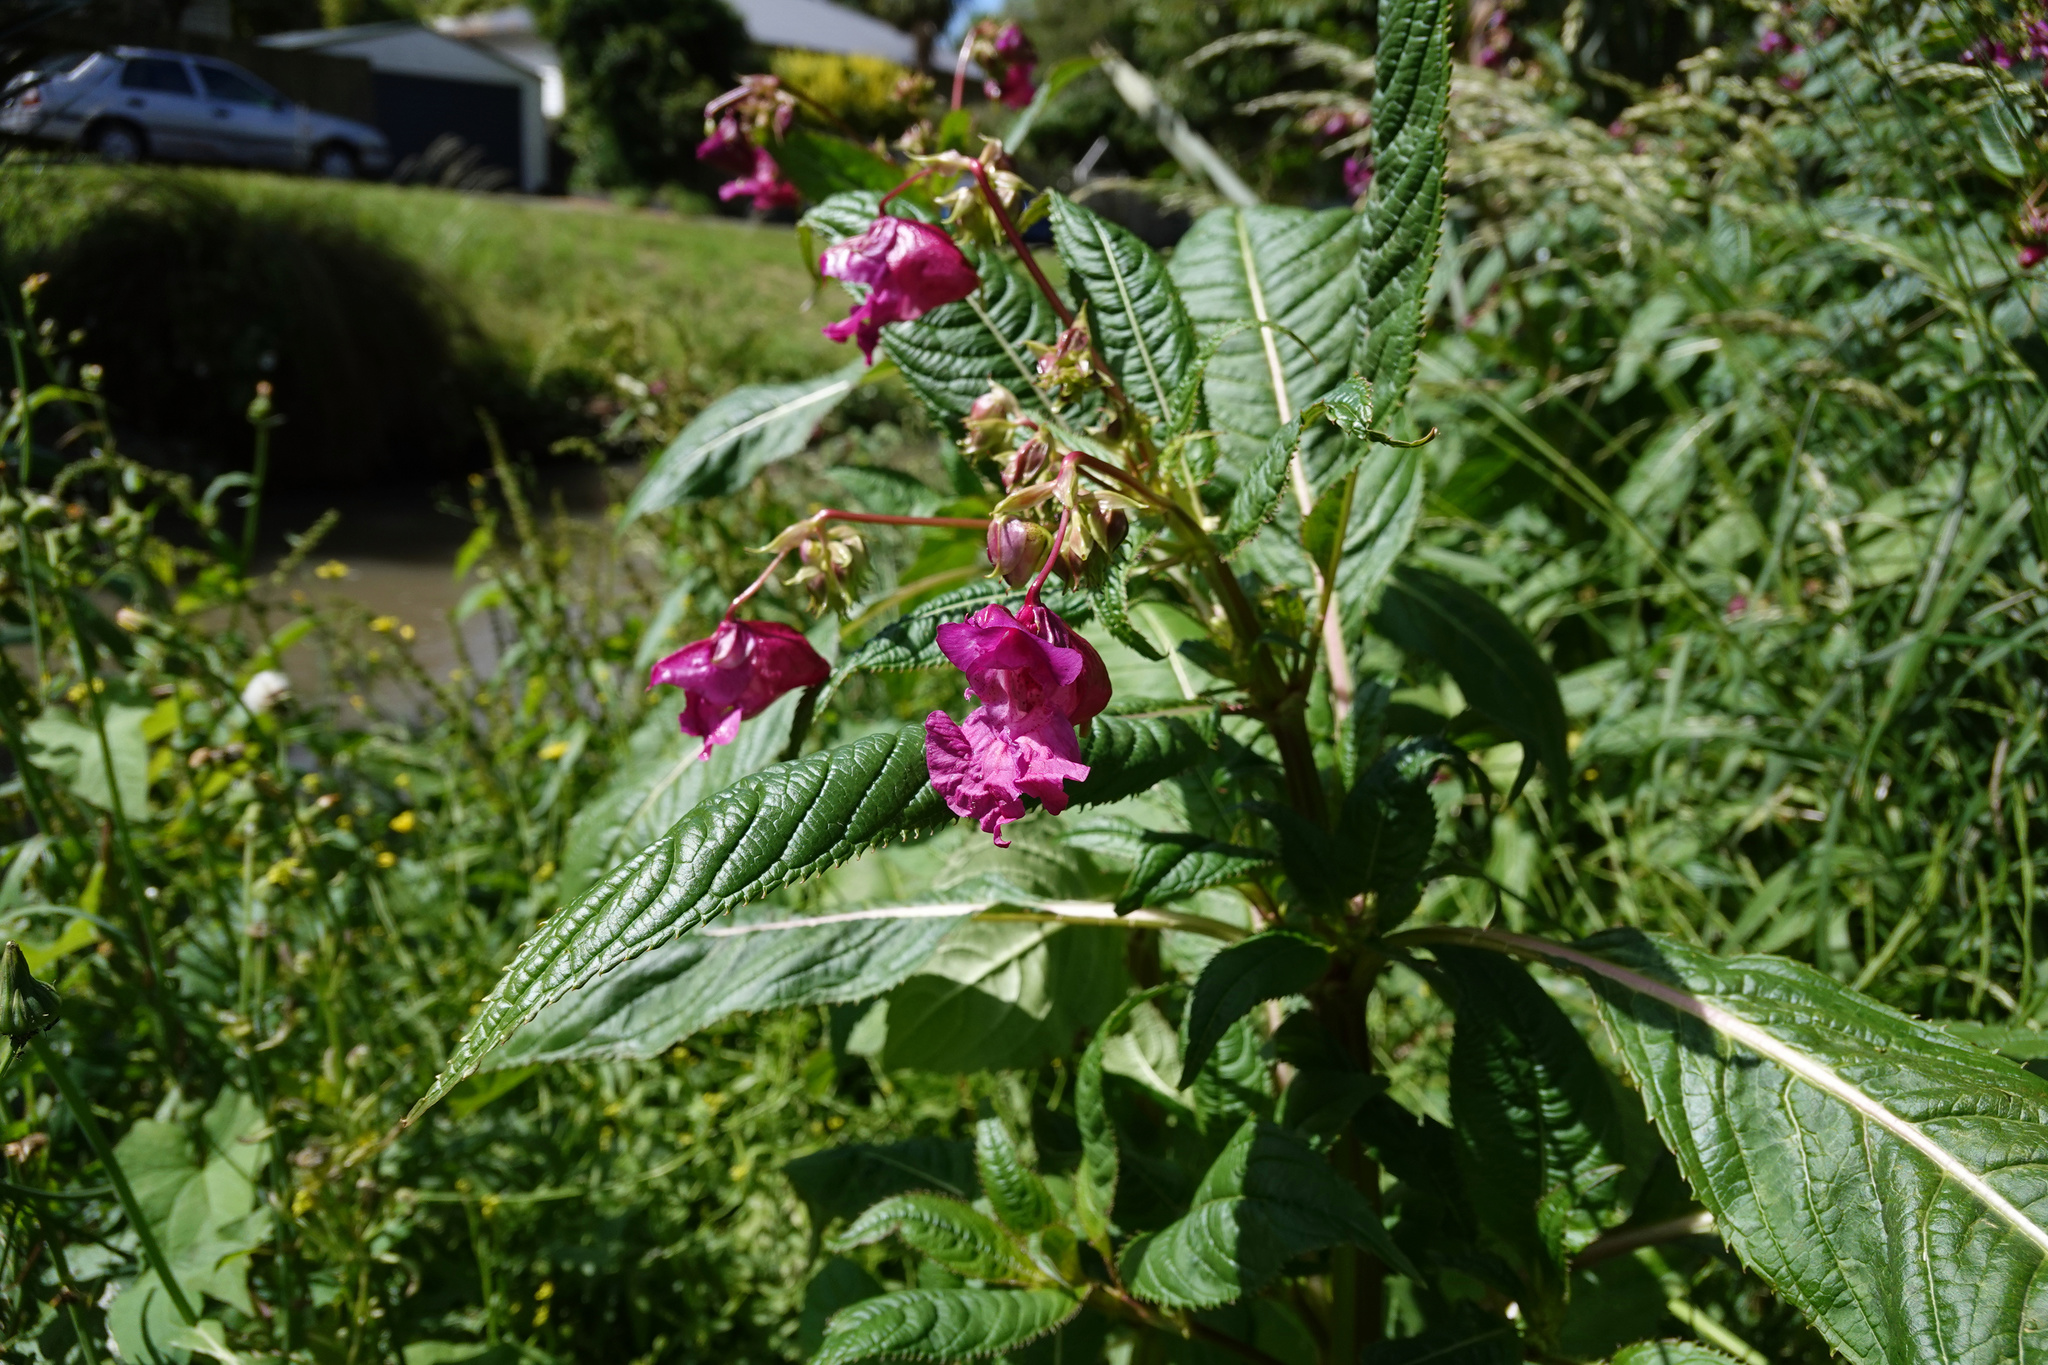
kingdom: Plantae
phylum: Tracheophyta
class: Magnoliopsida
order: Ericales
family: Balsaminaceae
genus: Impatiens
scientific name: Impatiens glandulifera
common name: Himalayan balsam
